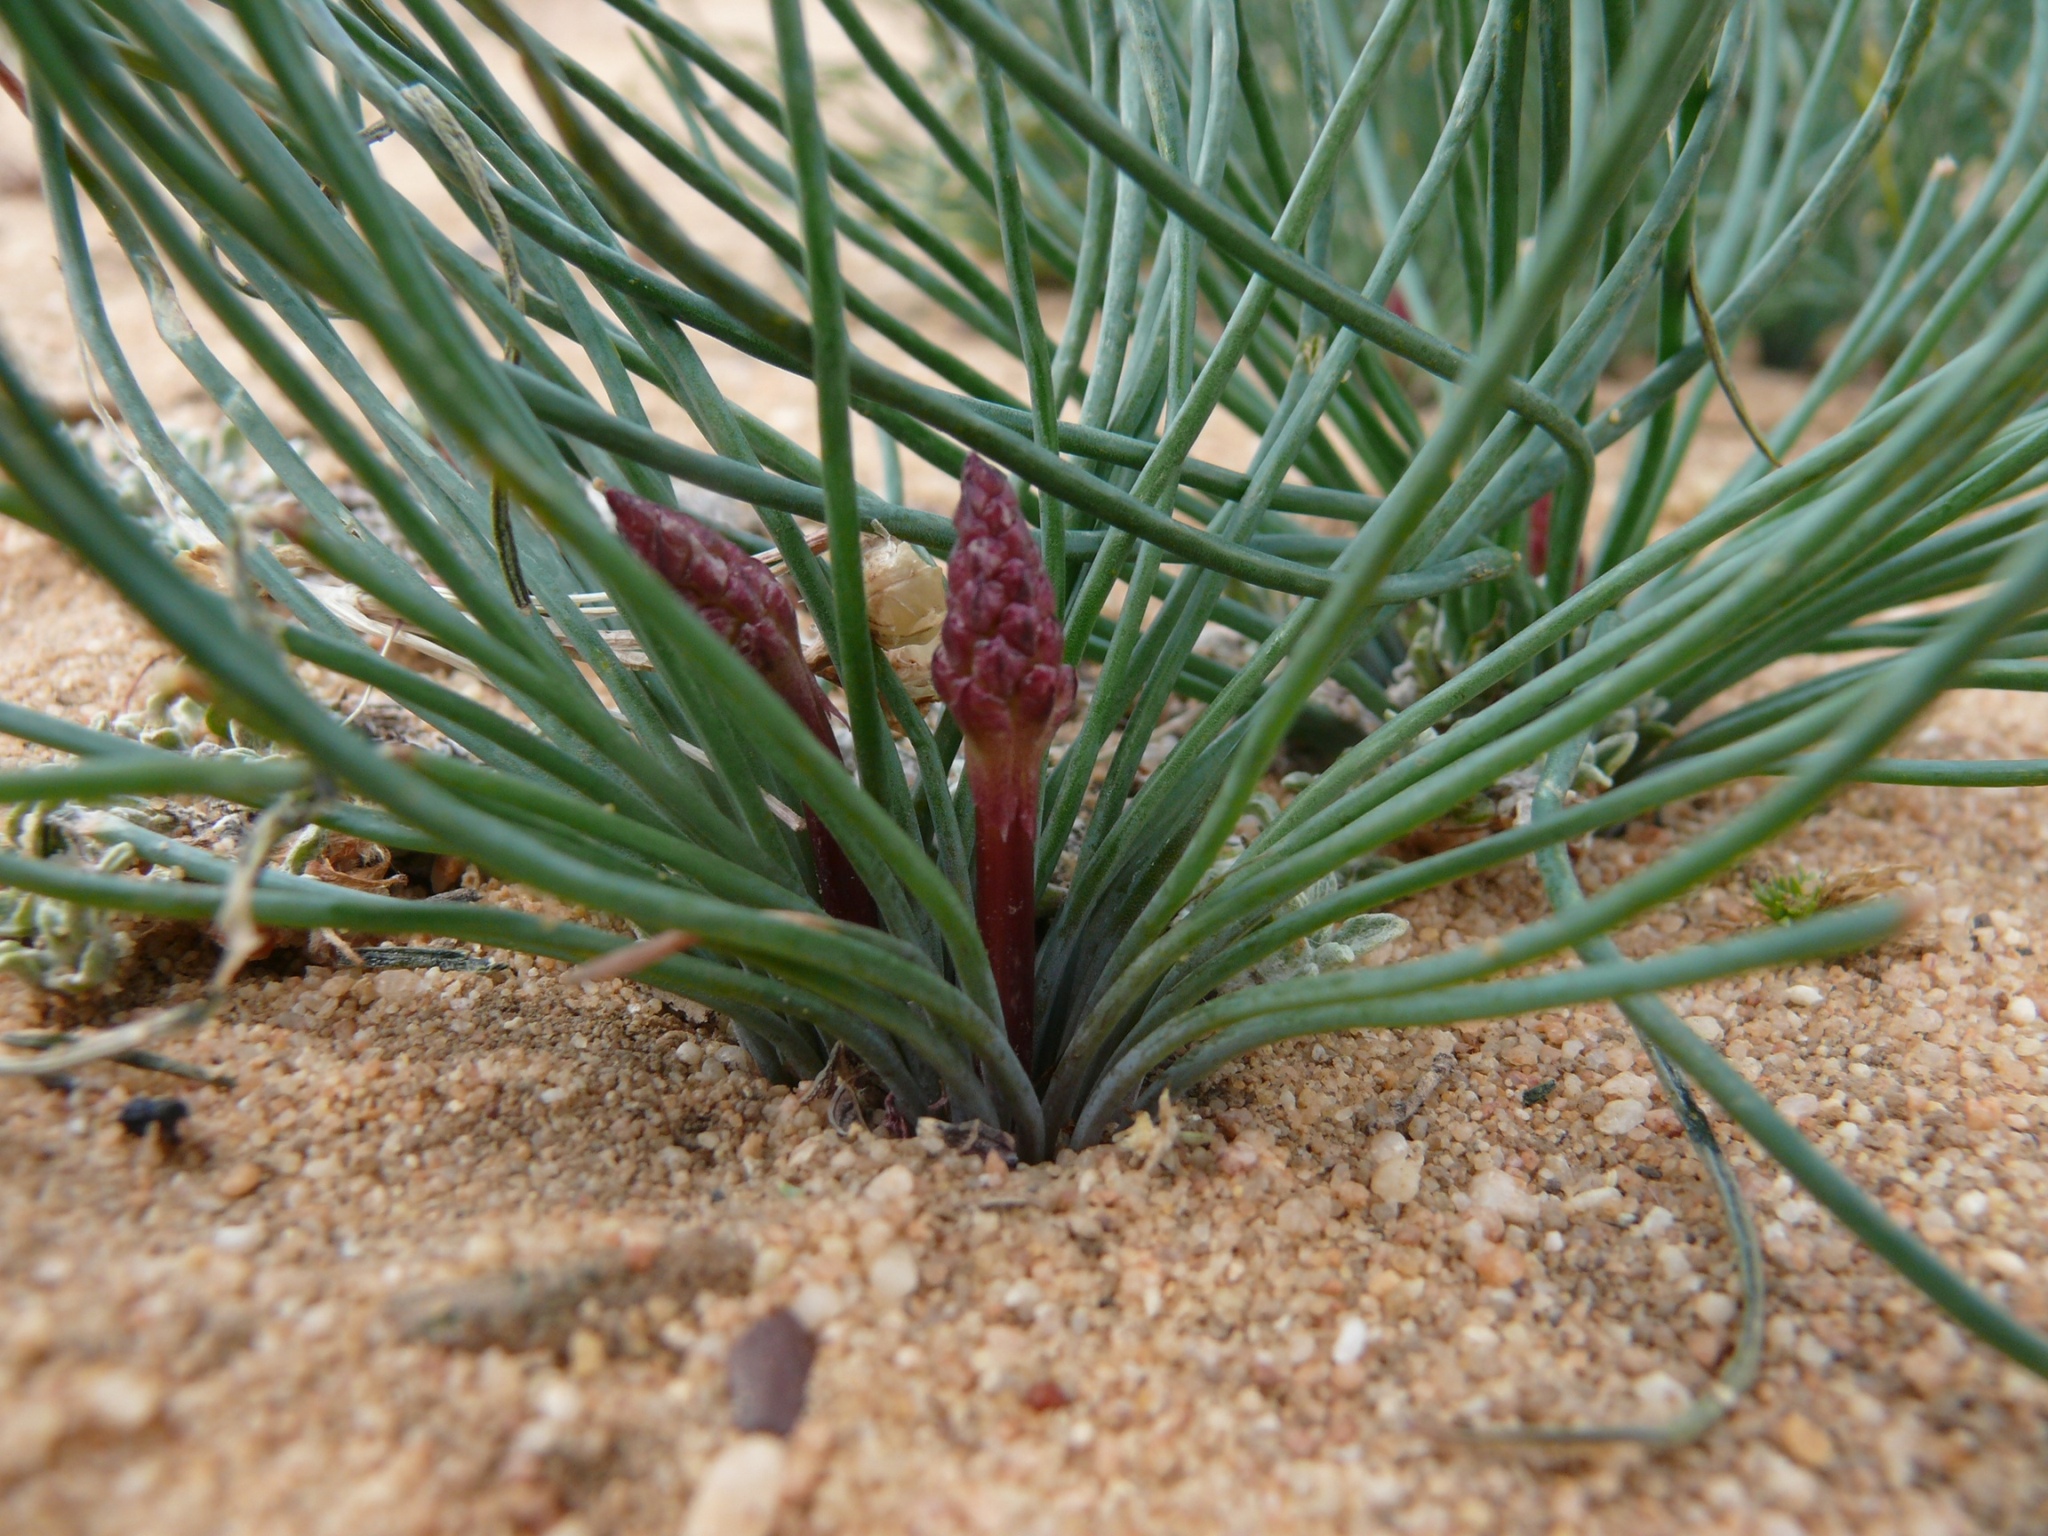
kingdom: Plantae
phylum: Tracheophyta
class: Liliopsida
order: Asparagales
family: Asparagaceae
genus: Drimia
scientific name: Drimia fragrans
